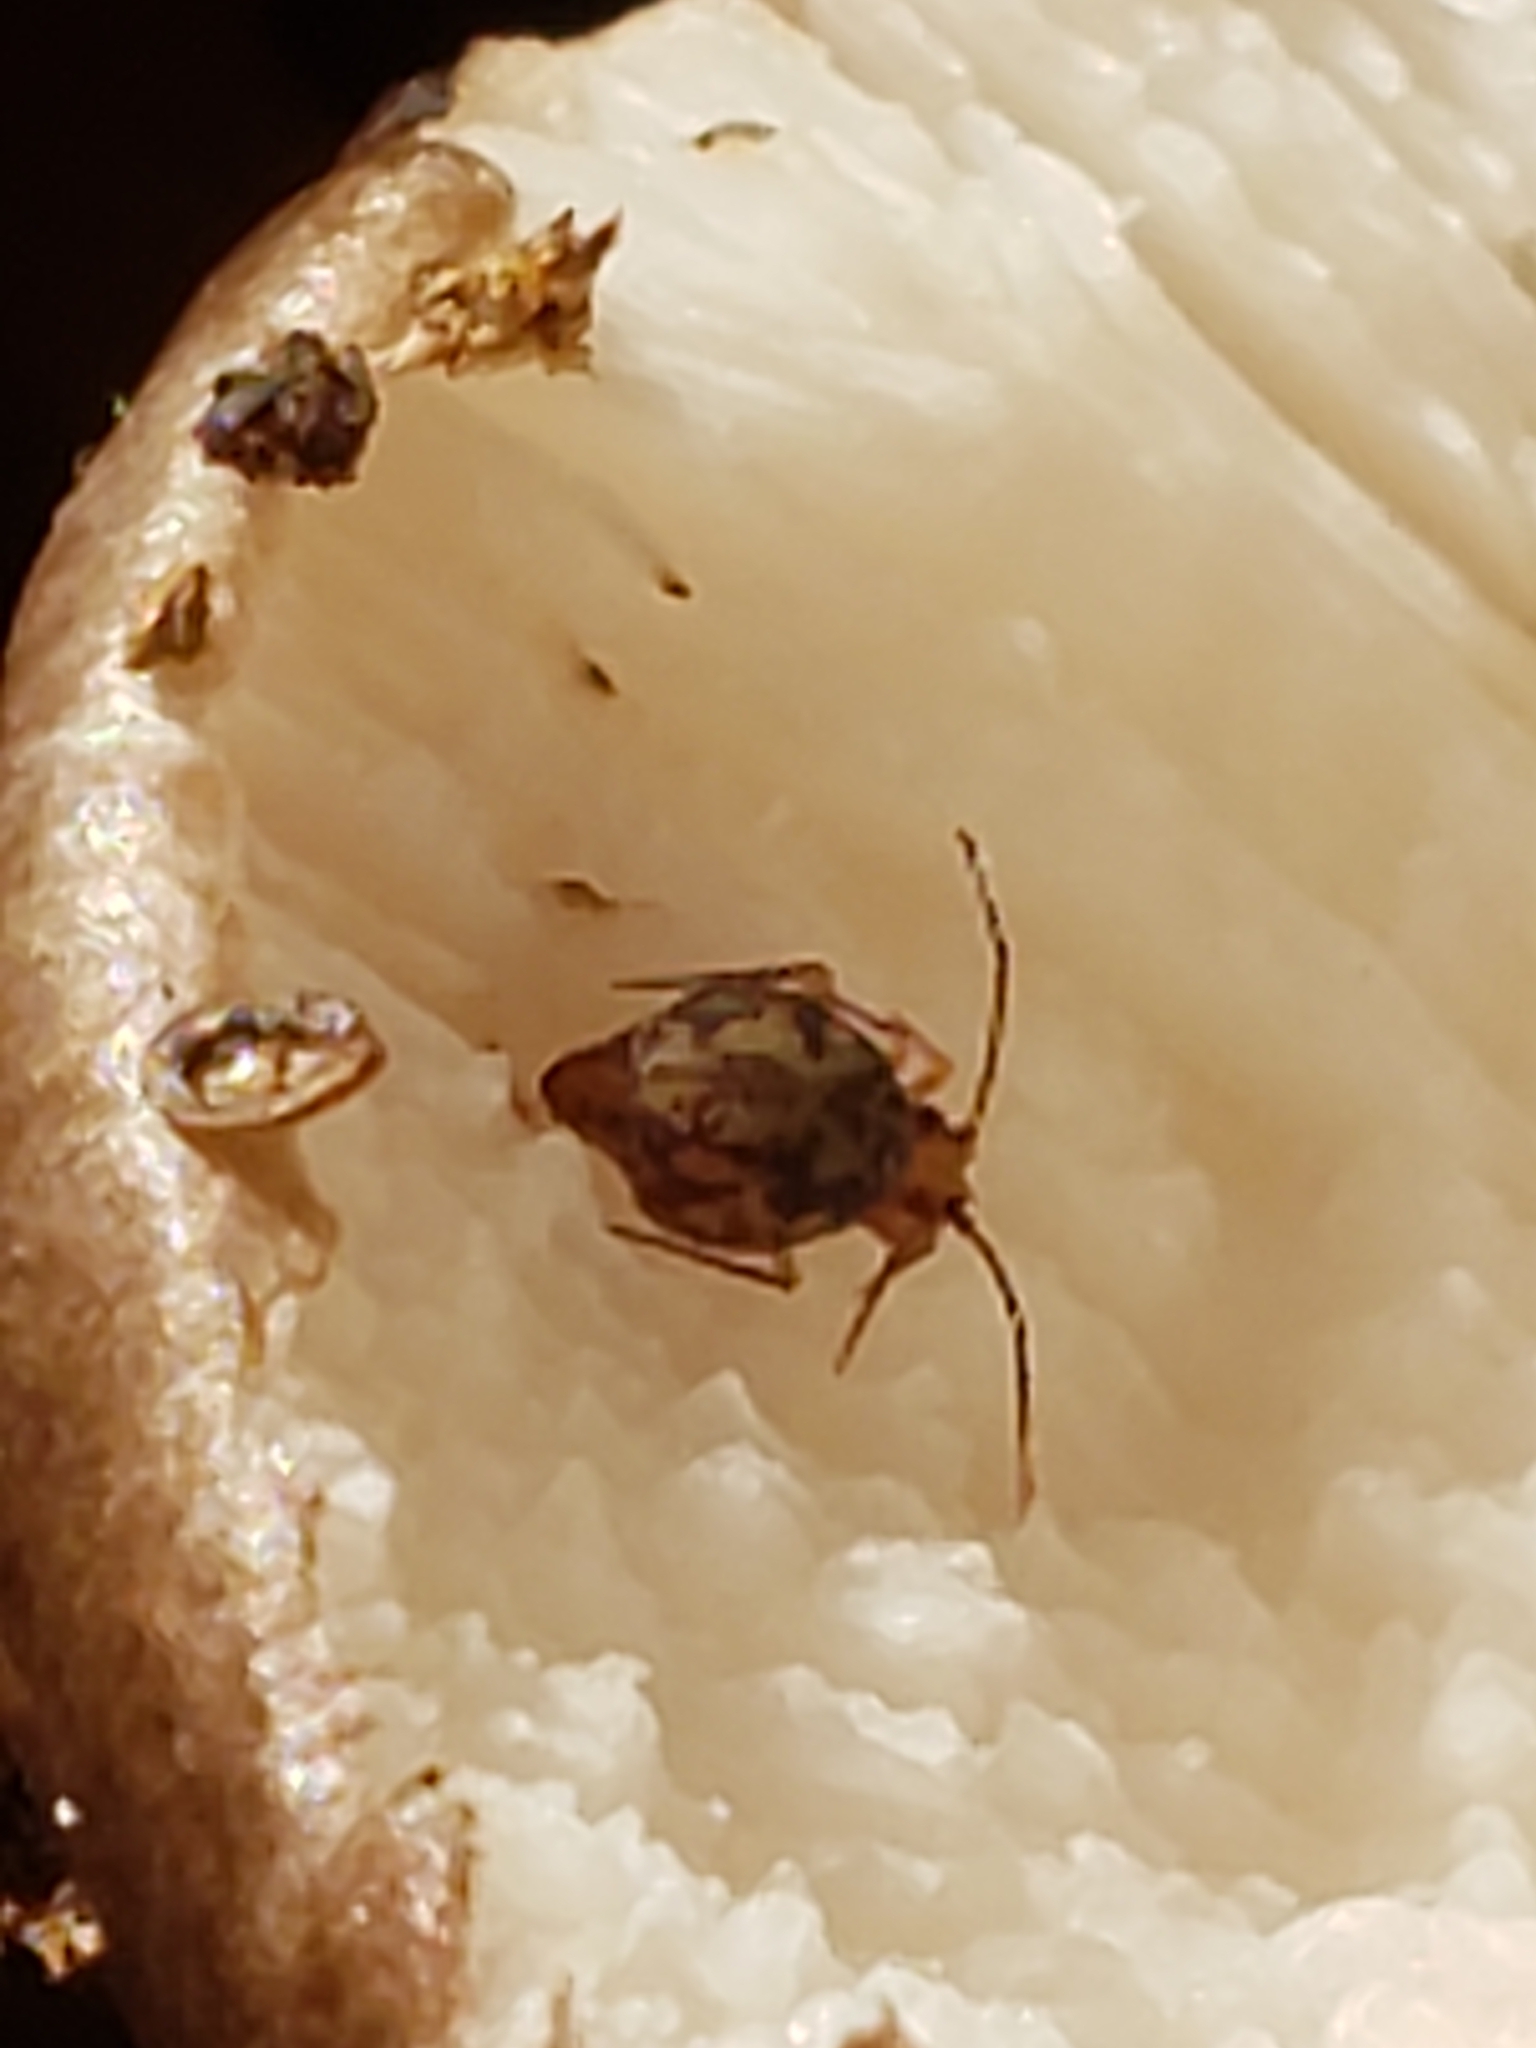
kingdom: Animalia
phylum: Arthropoda
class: Collembola
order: Symphypleona
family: Dicyrtomidae
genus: Ptenothrix
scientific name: Ptenothrix marmorata
